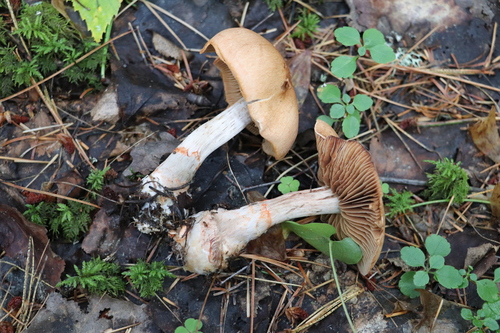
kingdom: Fungi
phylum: Basidiomycota
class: Agaricomycetes
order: Agaricales
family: Cortinariaceae
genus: Cortinarius
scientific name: Cortinarius armillatus
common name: Red banded webcap
